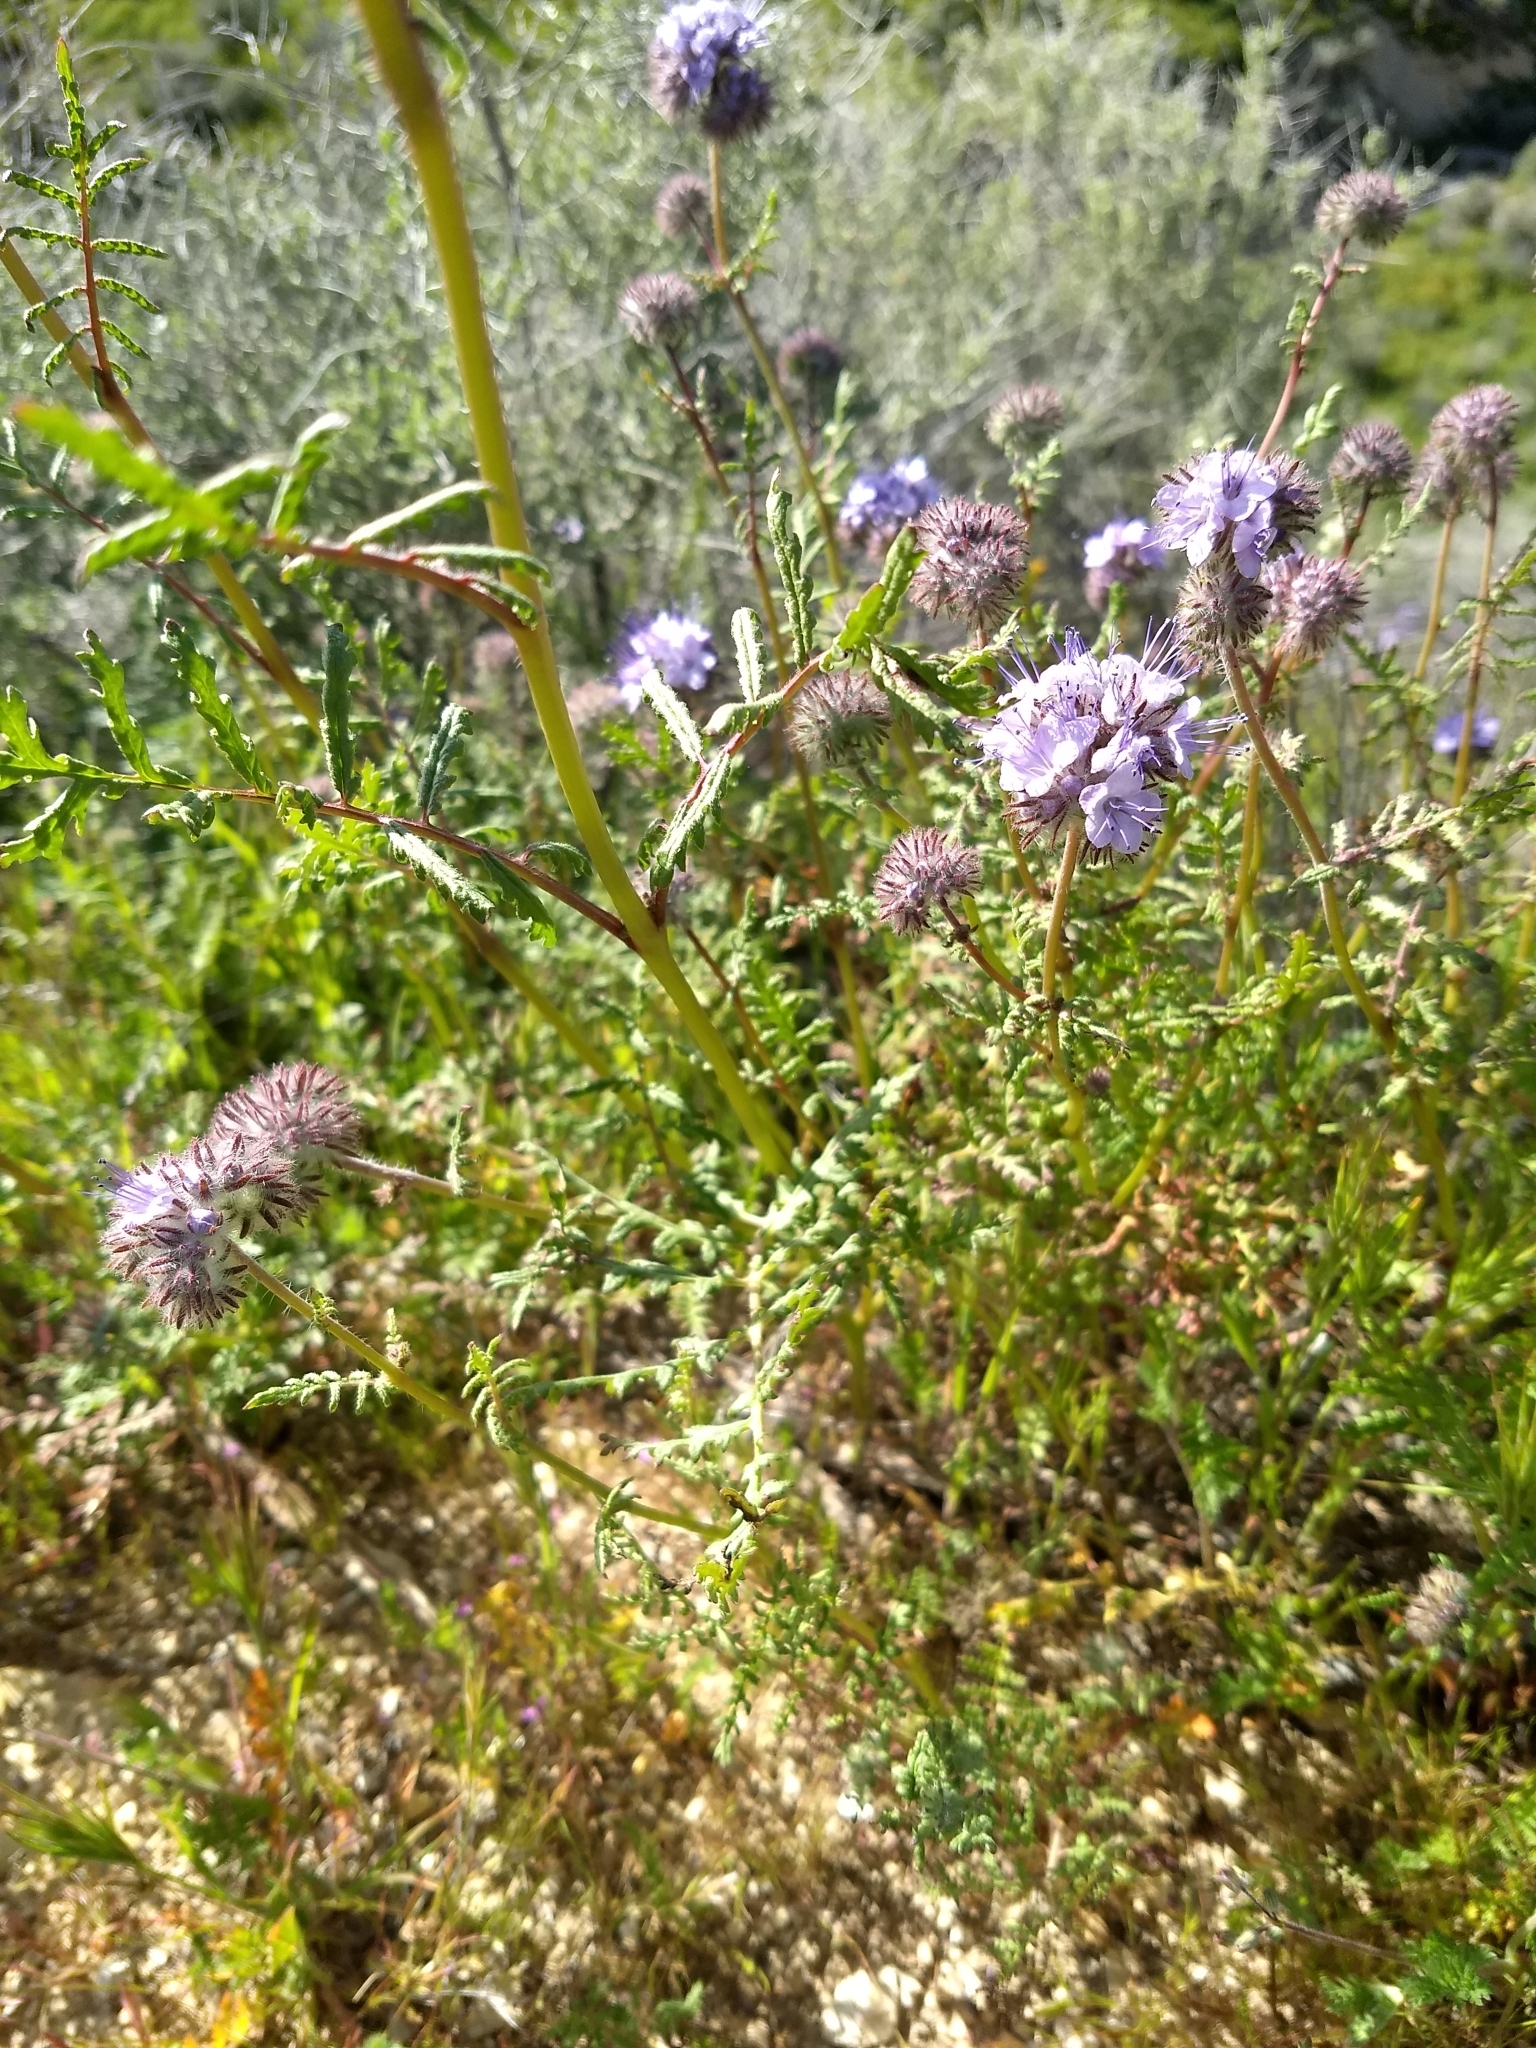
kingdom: Plantae
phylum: Tracheophyta
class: Magnoliopsida
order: Boraginales
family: Hydrophyllaceae
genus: Phacelia
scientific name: Phacelia tanacetifolia
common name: Phacelia
